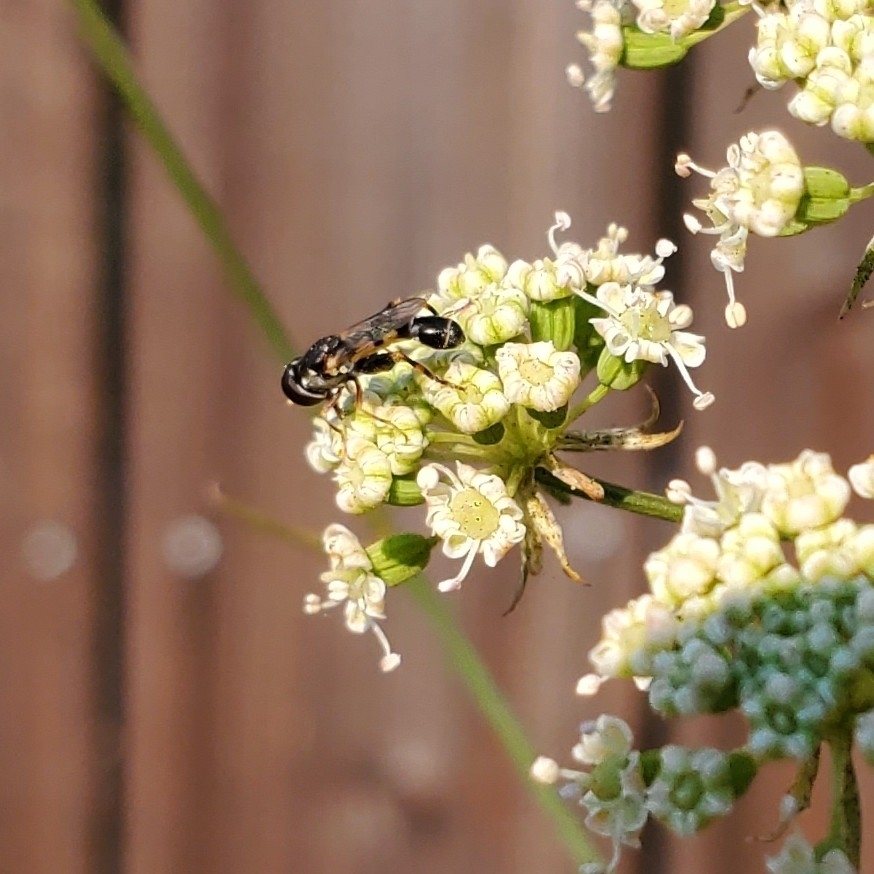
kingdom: Animalia
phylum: Arthropoda
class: Insecta
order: Diptera
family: Syrphidae
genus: Syritta
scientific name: Syritta pipiens
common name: Hover fly
